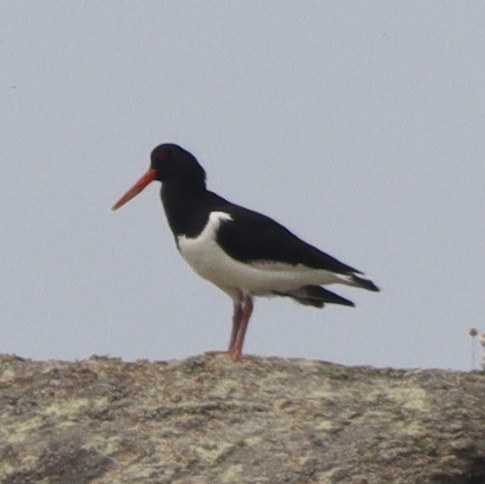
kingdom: Animalia
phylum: Chordata
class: Aves
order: Charadriiformes
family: Haematopodidae
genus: Haematopus
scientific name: Haematopus ostralegus
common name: Eurasian oystercatcher
